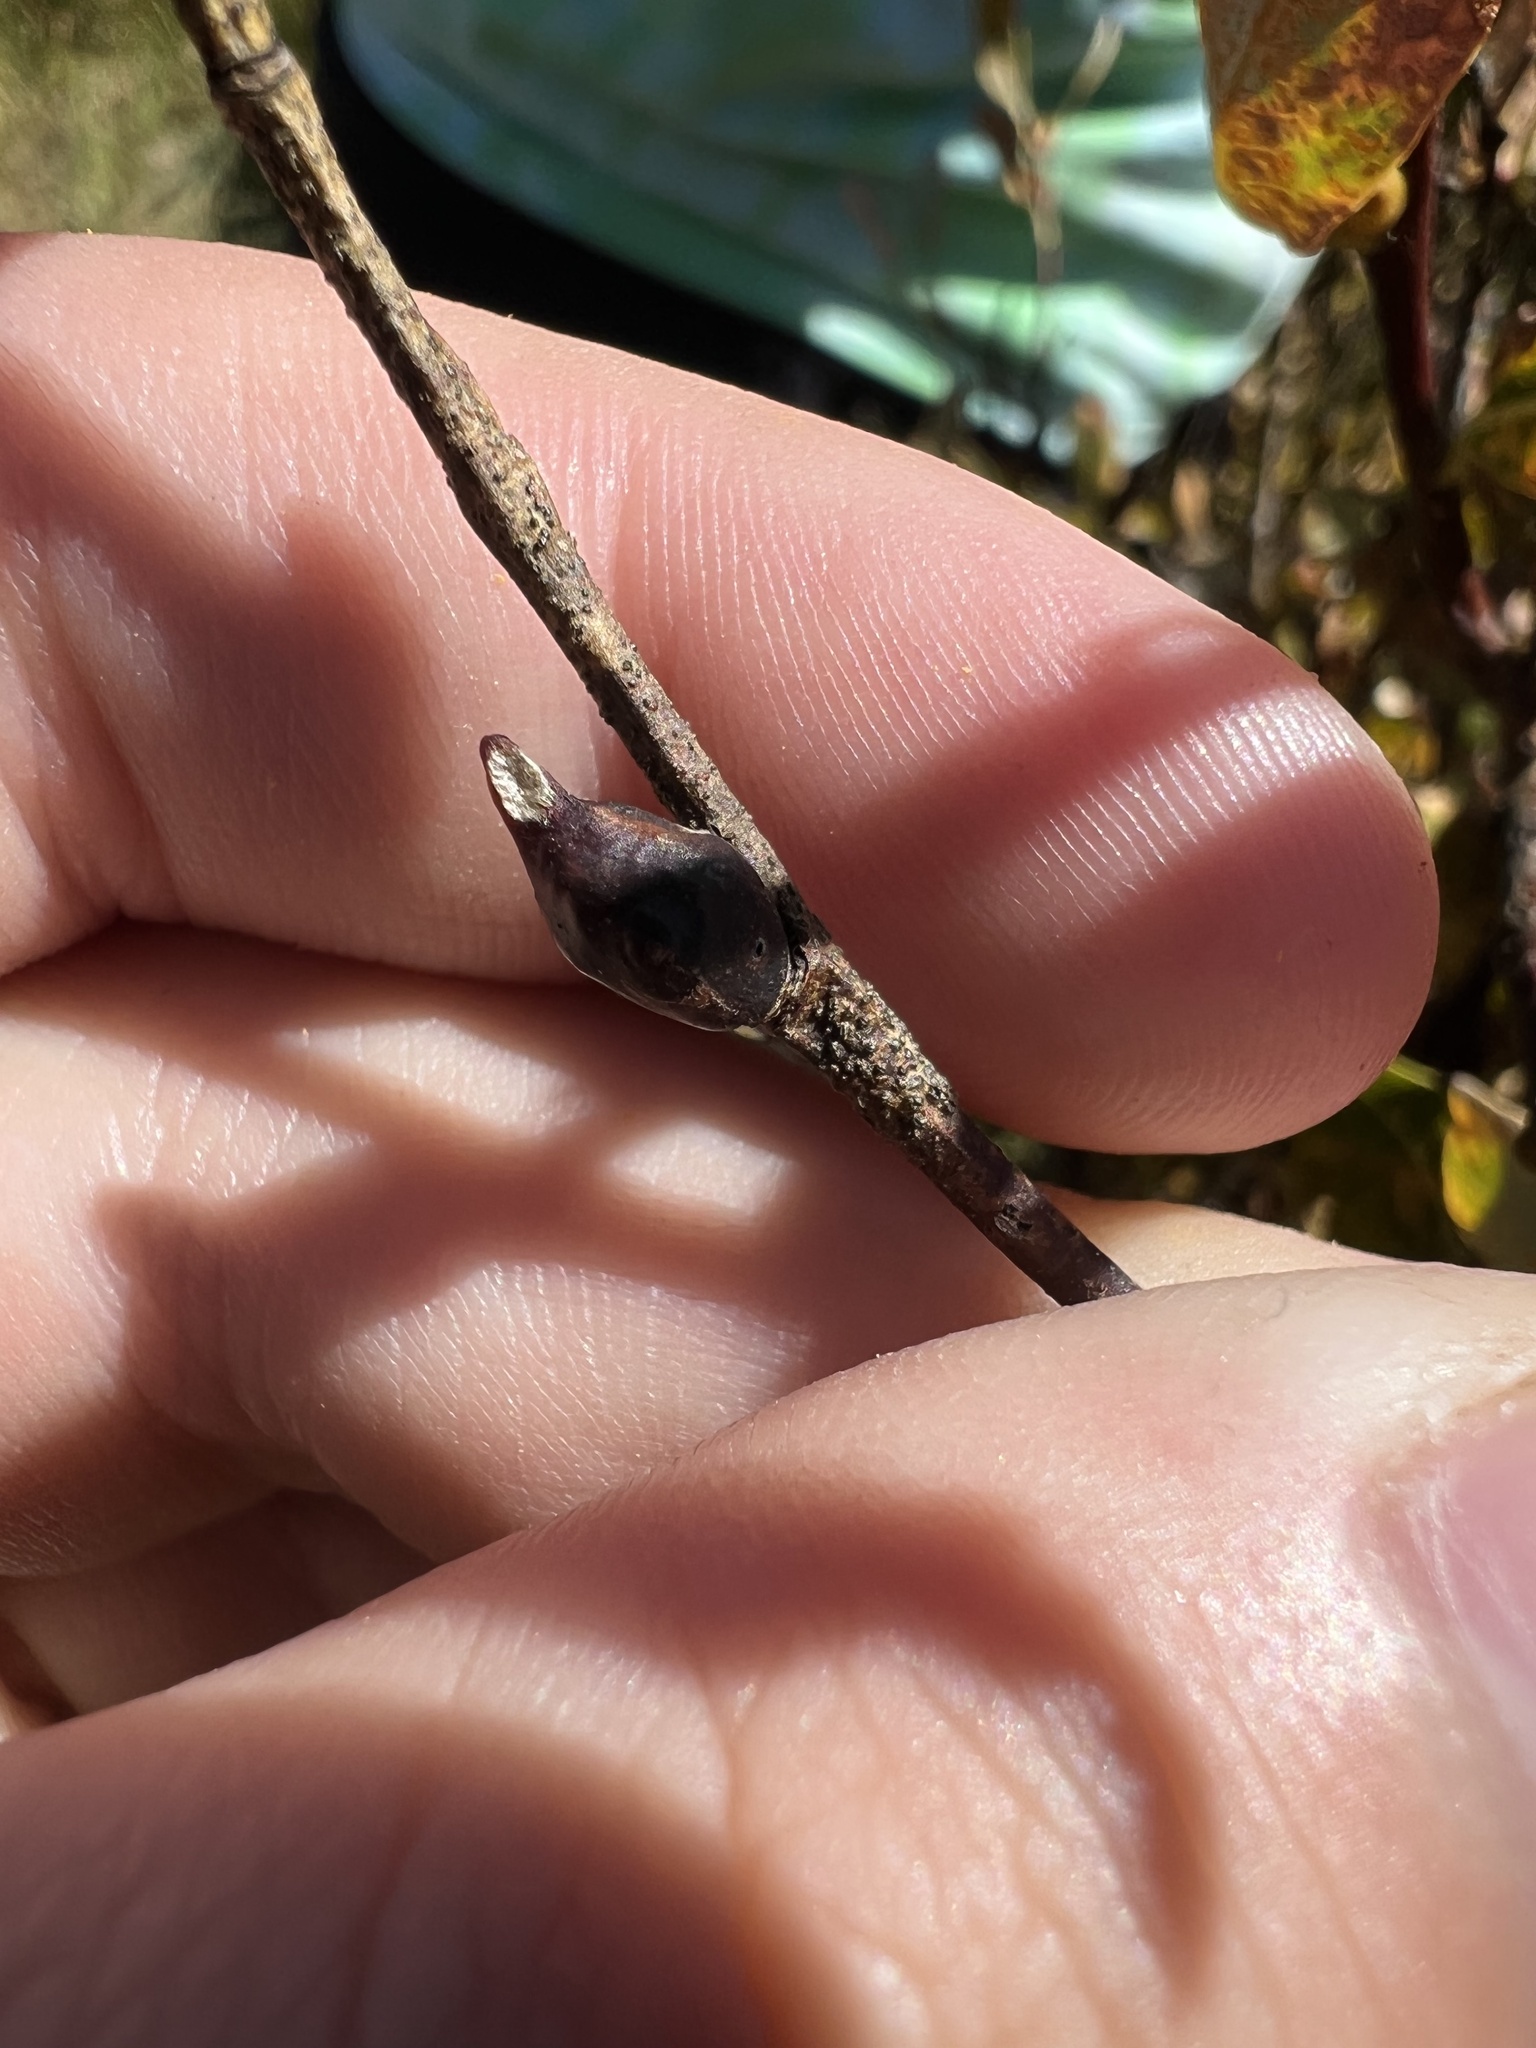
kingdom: Animalia
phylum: Arthropoda
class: Insecta
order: Diptera
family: Cecidomyiidae
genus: Thecodiplosis
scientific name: Thecodiplosis pinirigidae
